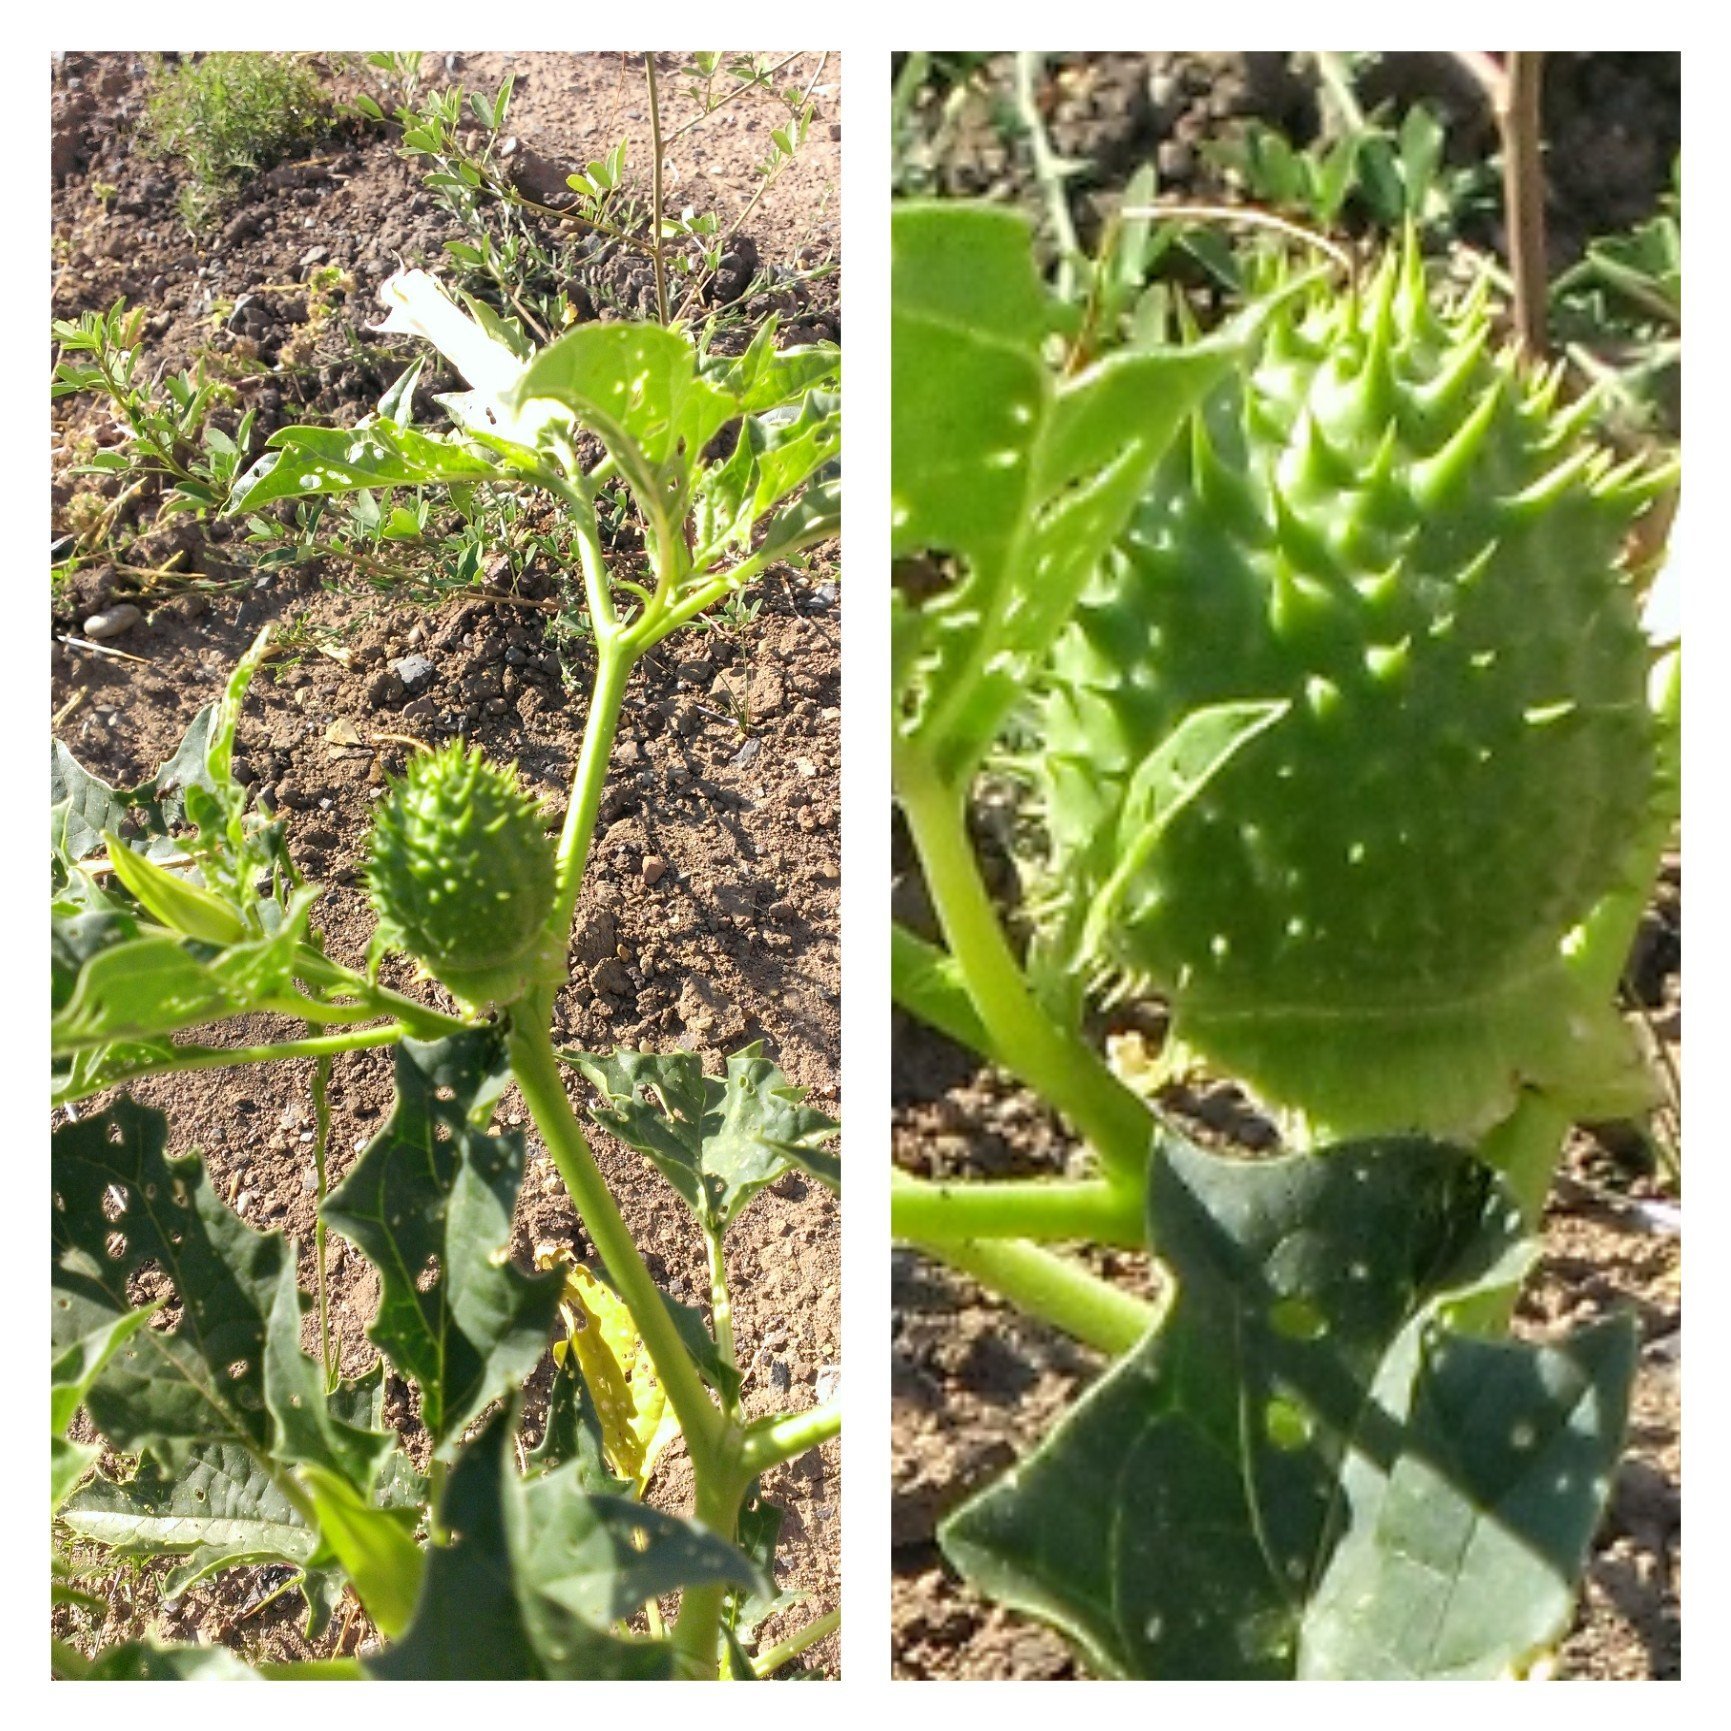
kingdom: Plantae
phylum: Tracheophyta
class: Magnoliopsida
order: Solanales
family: Solanaceae
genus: Datura
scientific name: Datura stramonium
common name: Thorn-apple
